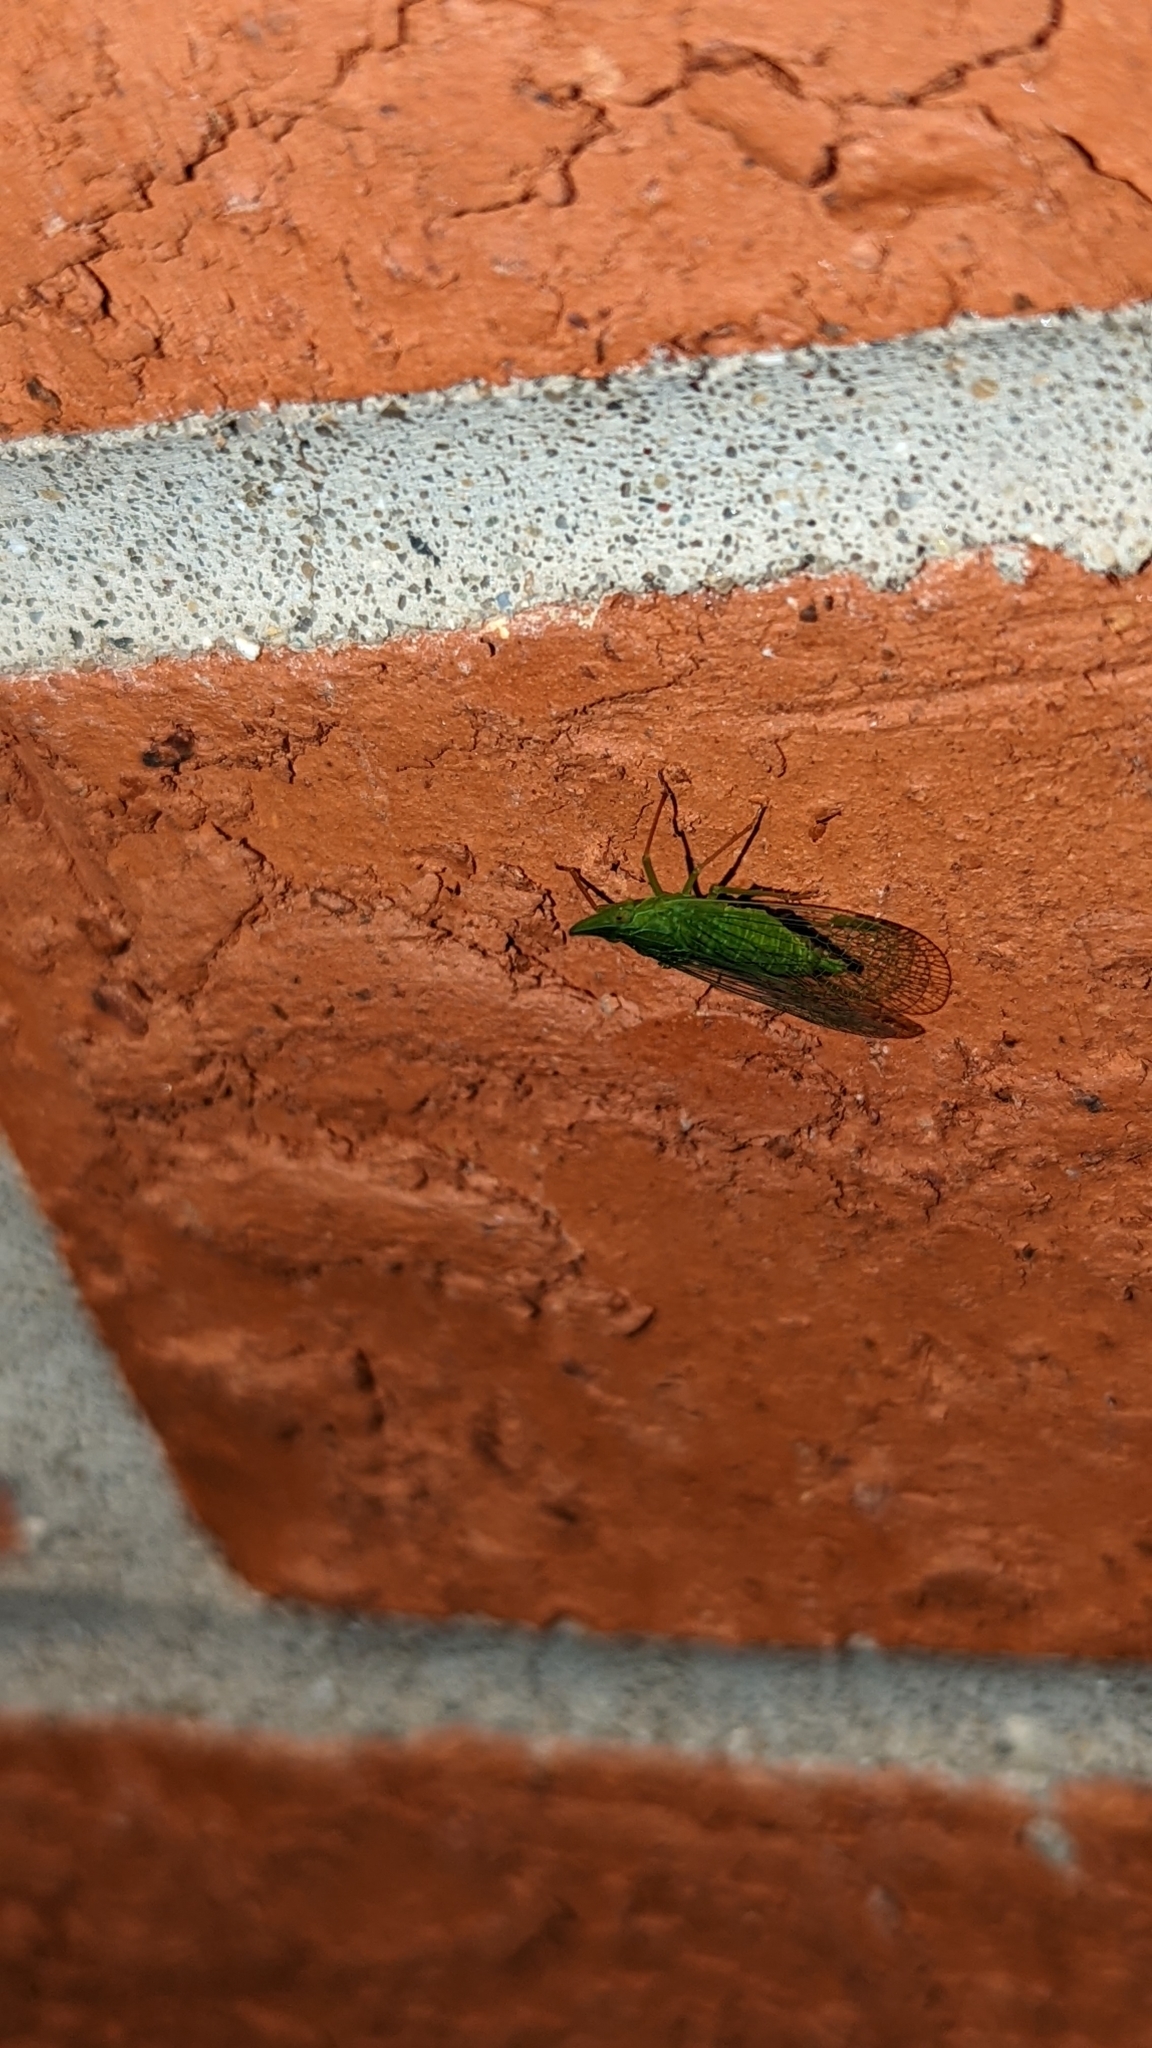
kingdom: Animalia
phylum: Arthropoda
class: Insecta
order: Hemiptera
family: Dictyopharidae
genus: Rhynchomitra
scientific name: Rhynchomitra microrhina
